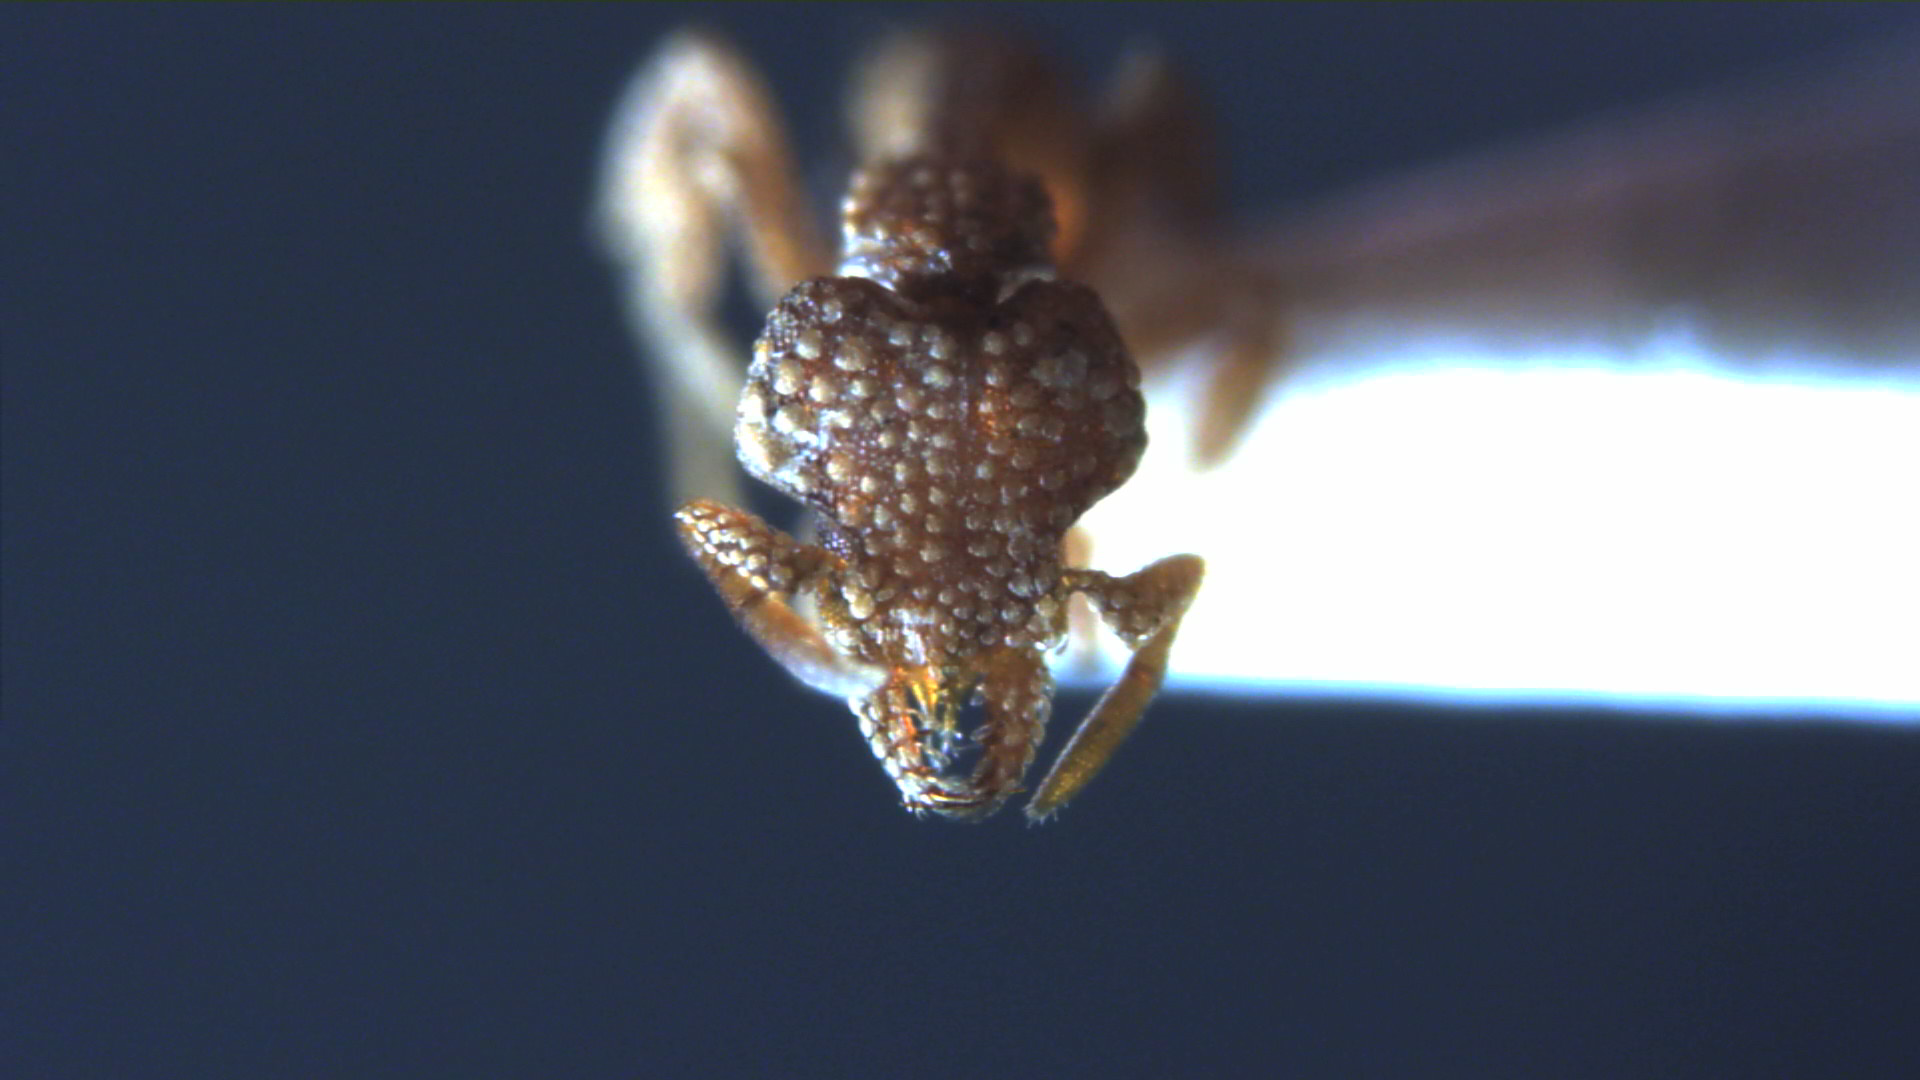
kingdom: Animalia
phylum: Arthropoda
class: Insecta
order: Hymenoptera
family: Formicidae
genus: Pyramica
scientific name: Pyramica hexamera
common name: Ant
